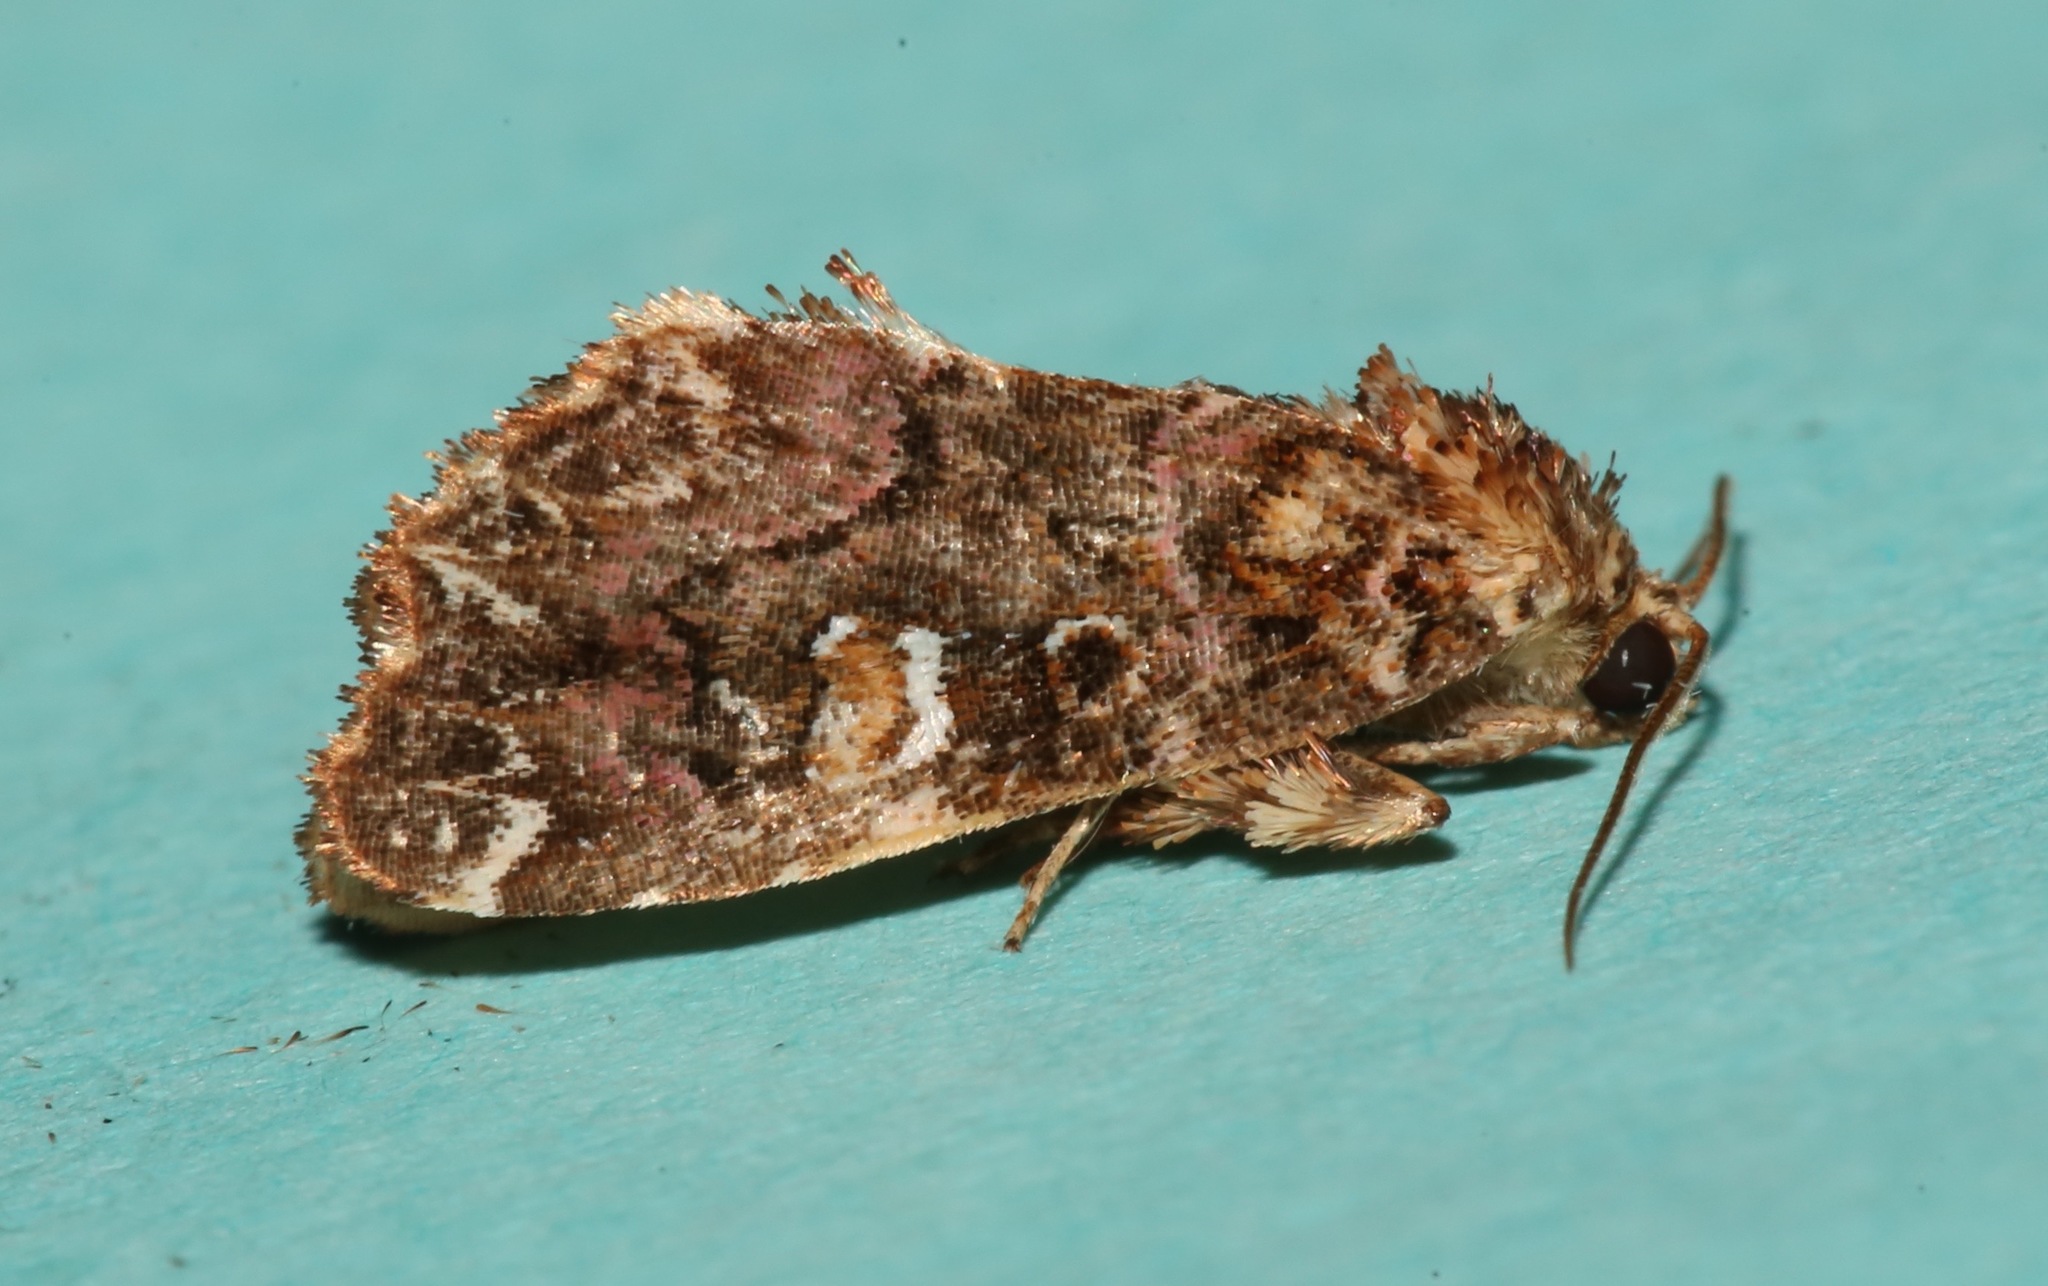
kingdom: Animalia
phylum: Arthropoda
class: Insecta
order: Lepidoptera
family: Noctuidae
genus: Callopistria
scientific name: Callopistria mollissima
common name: Pink-shaded fern moth
